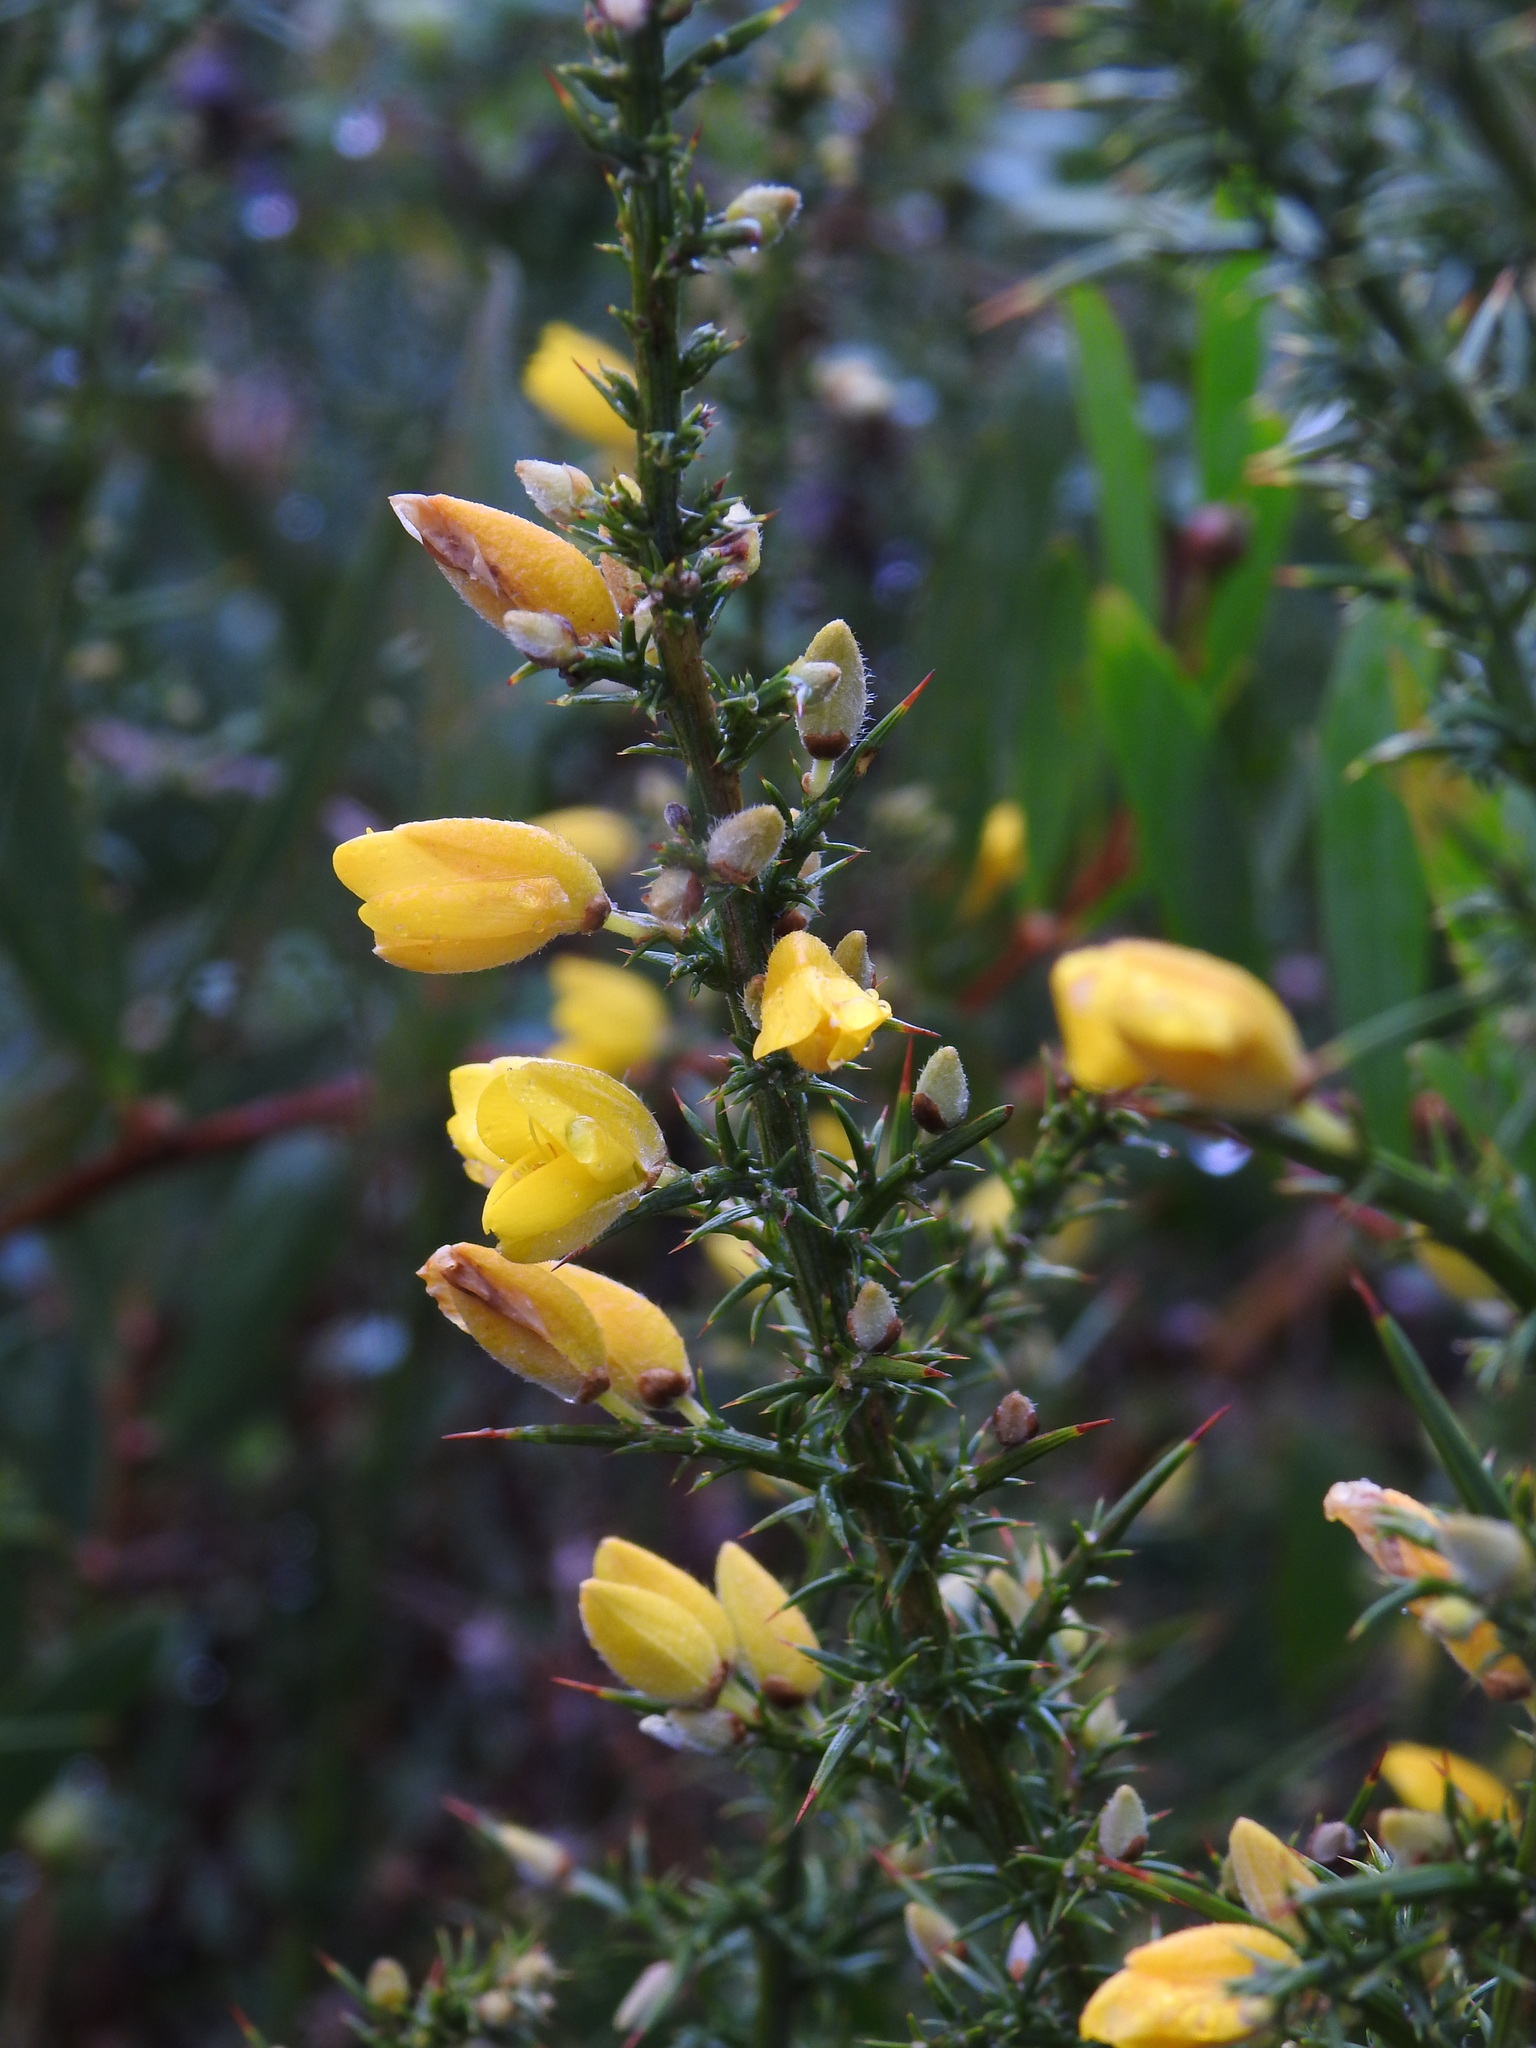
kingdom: Plantae
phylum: Tracheophyta
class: Magnoliopsida
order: Fabales
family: Fabaceae
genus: Ulex
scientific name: Ulex europaeus
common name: Common gorse
